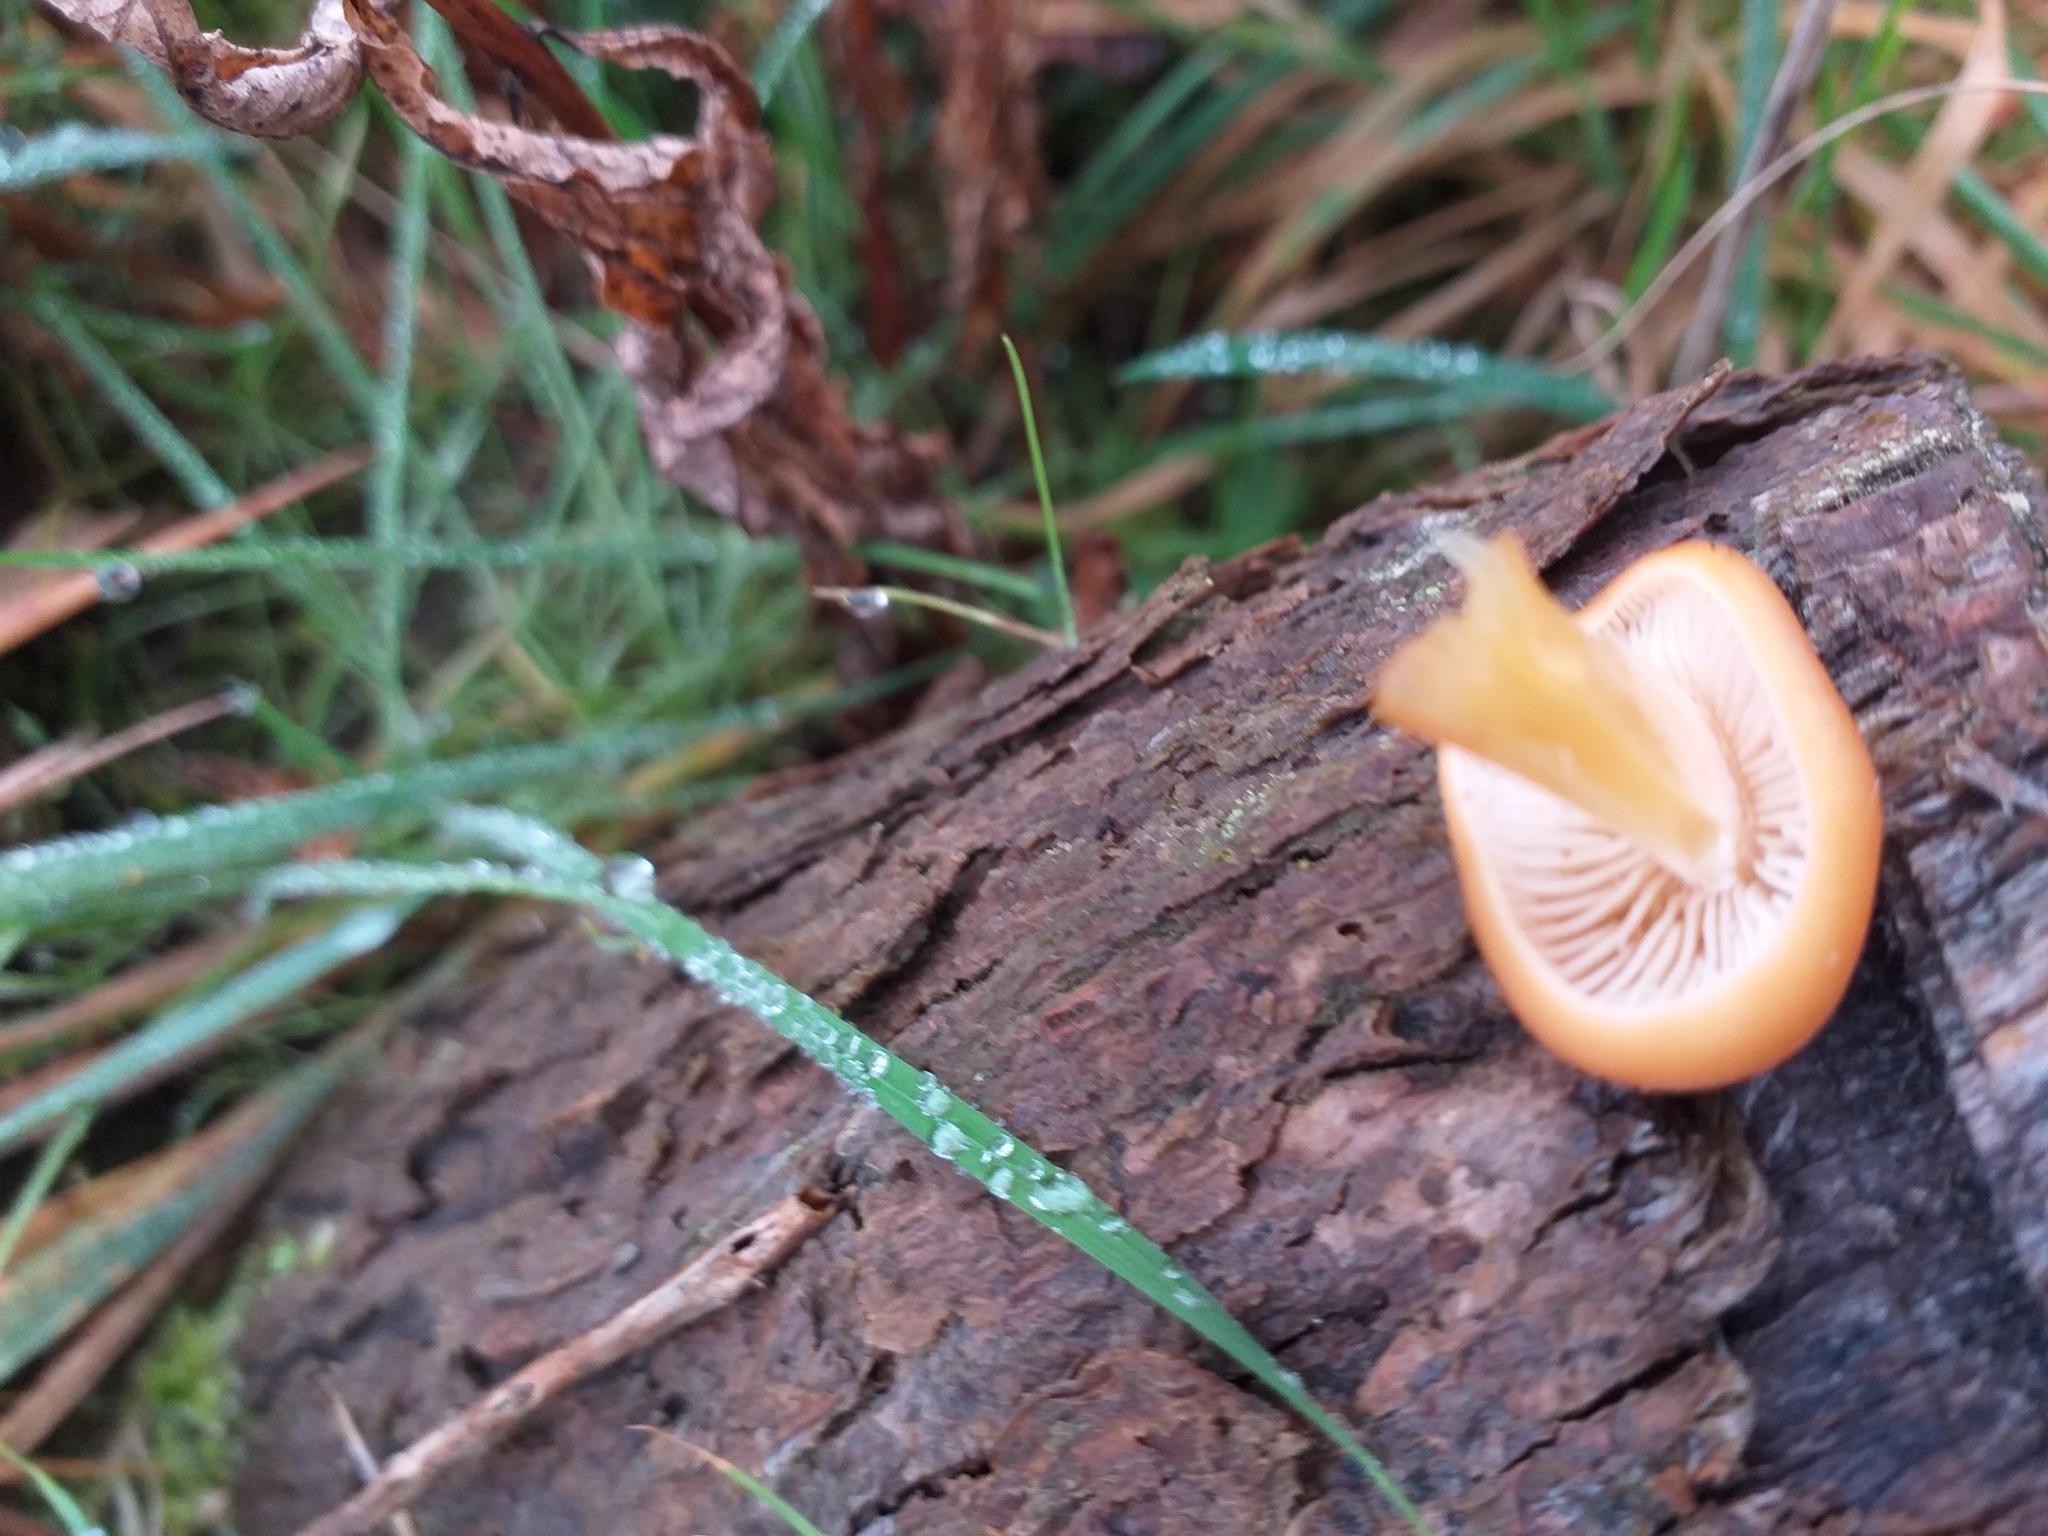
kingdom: Fungi
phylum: Basidiomycota
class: Agaricomycetes
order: Agaricales
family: Physalacriaceae
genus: Flammulina
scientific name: Flammulina
